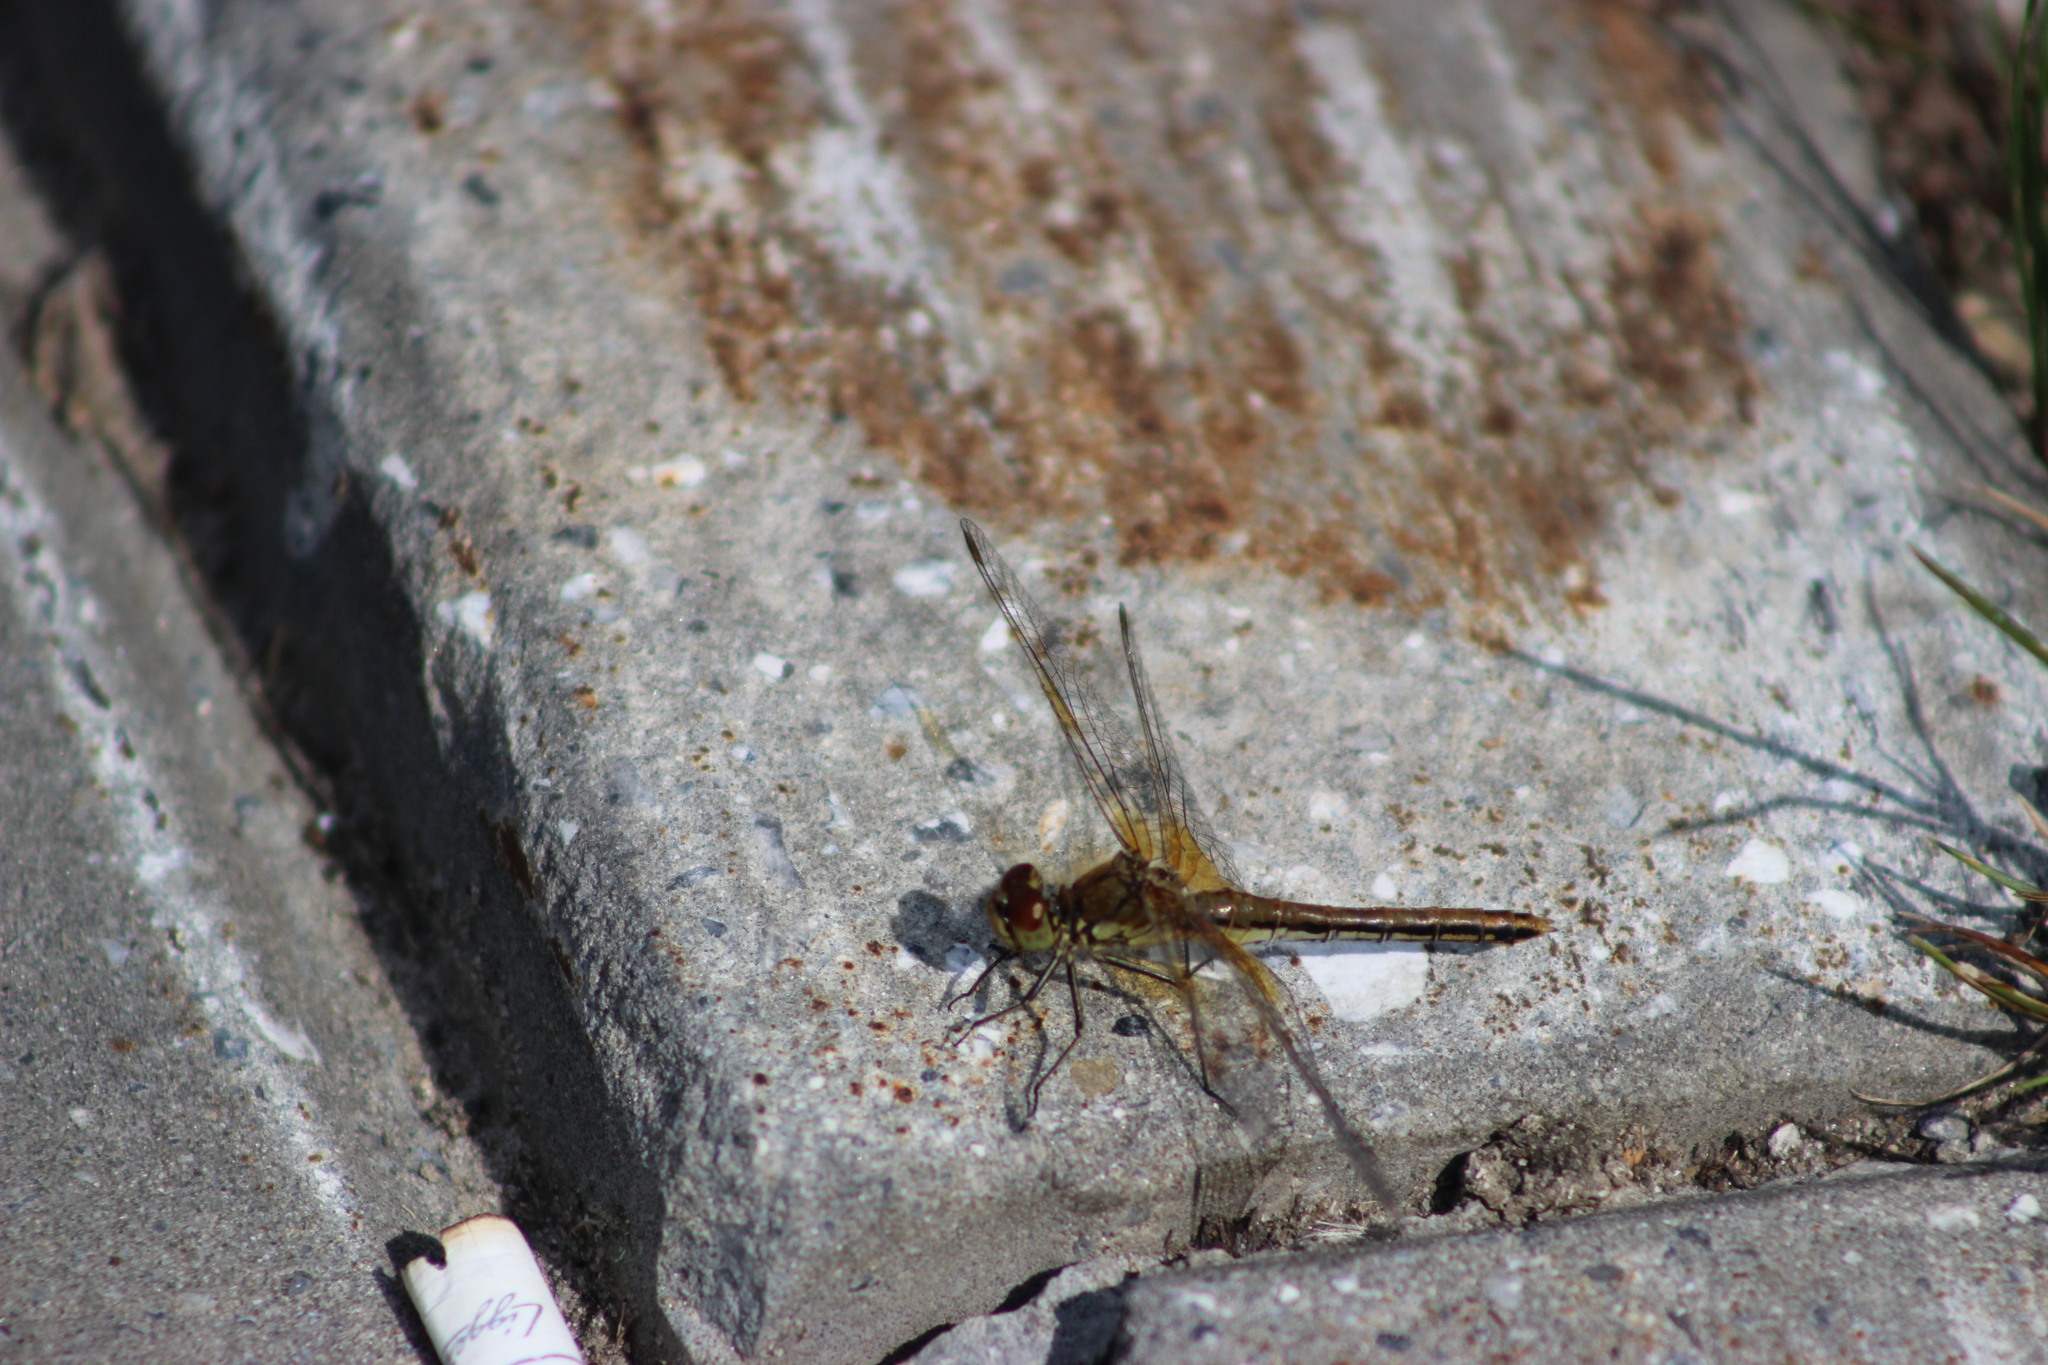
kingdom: Animalia
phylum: Arthropoda
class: Insecta
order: Odonata
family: Libellulidae
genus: Sympetrum
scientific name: Sympetrum flaveolum
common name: Yellow-winged darter
